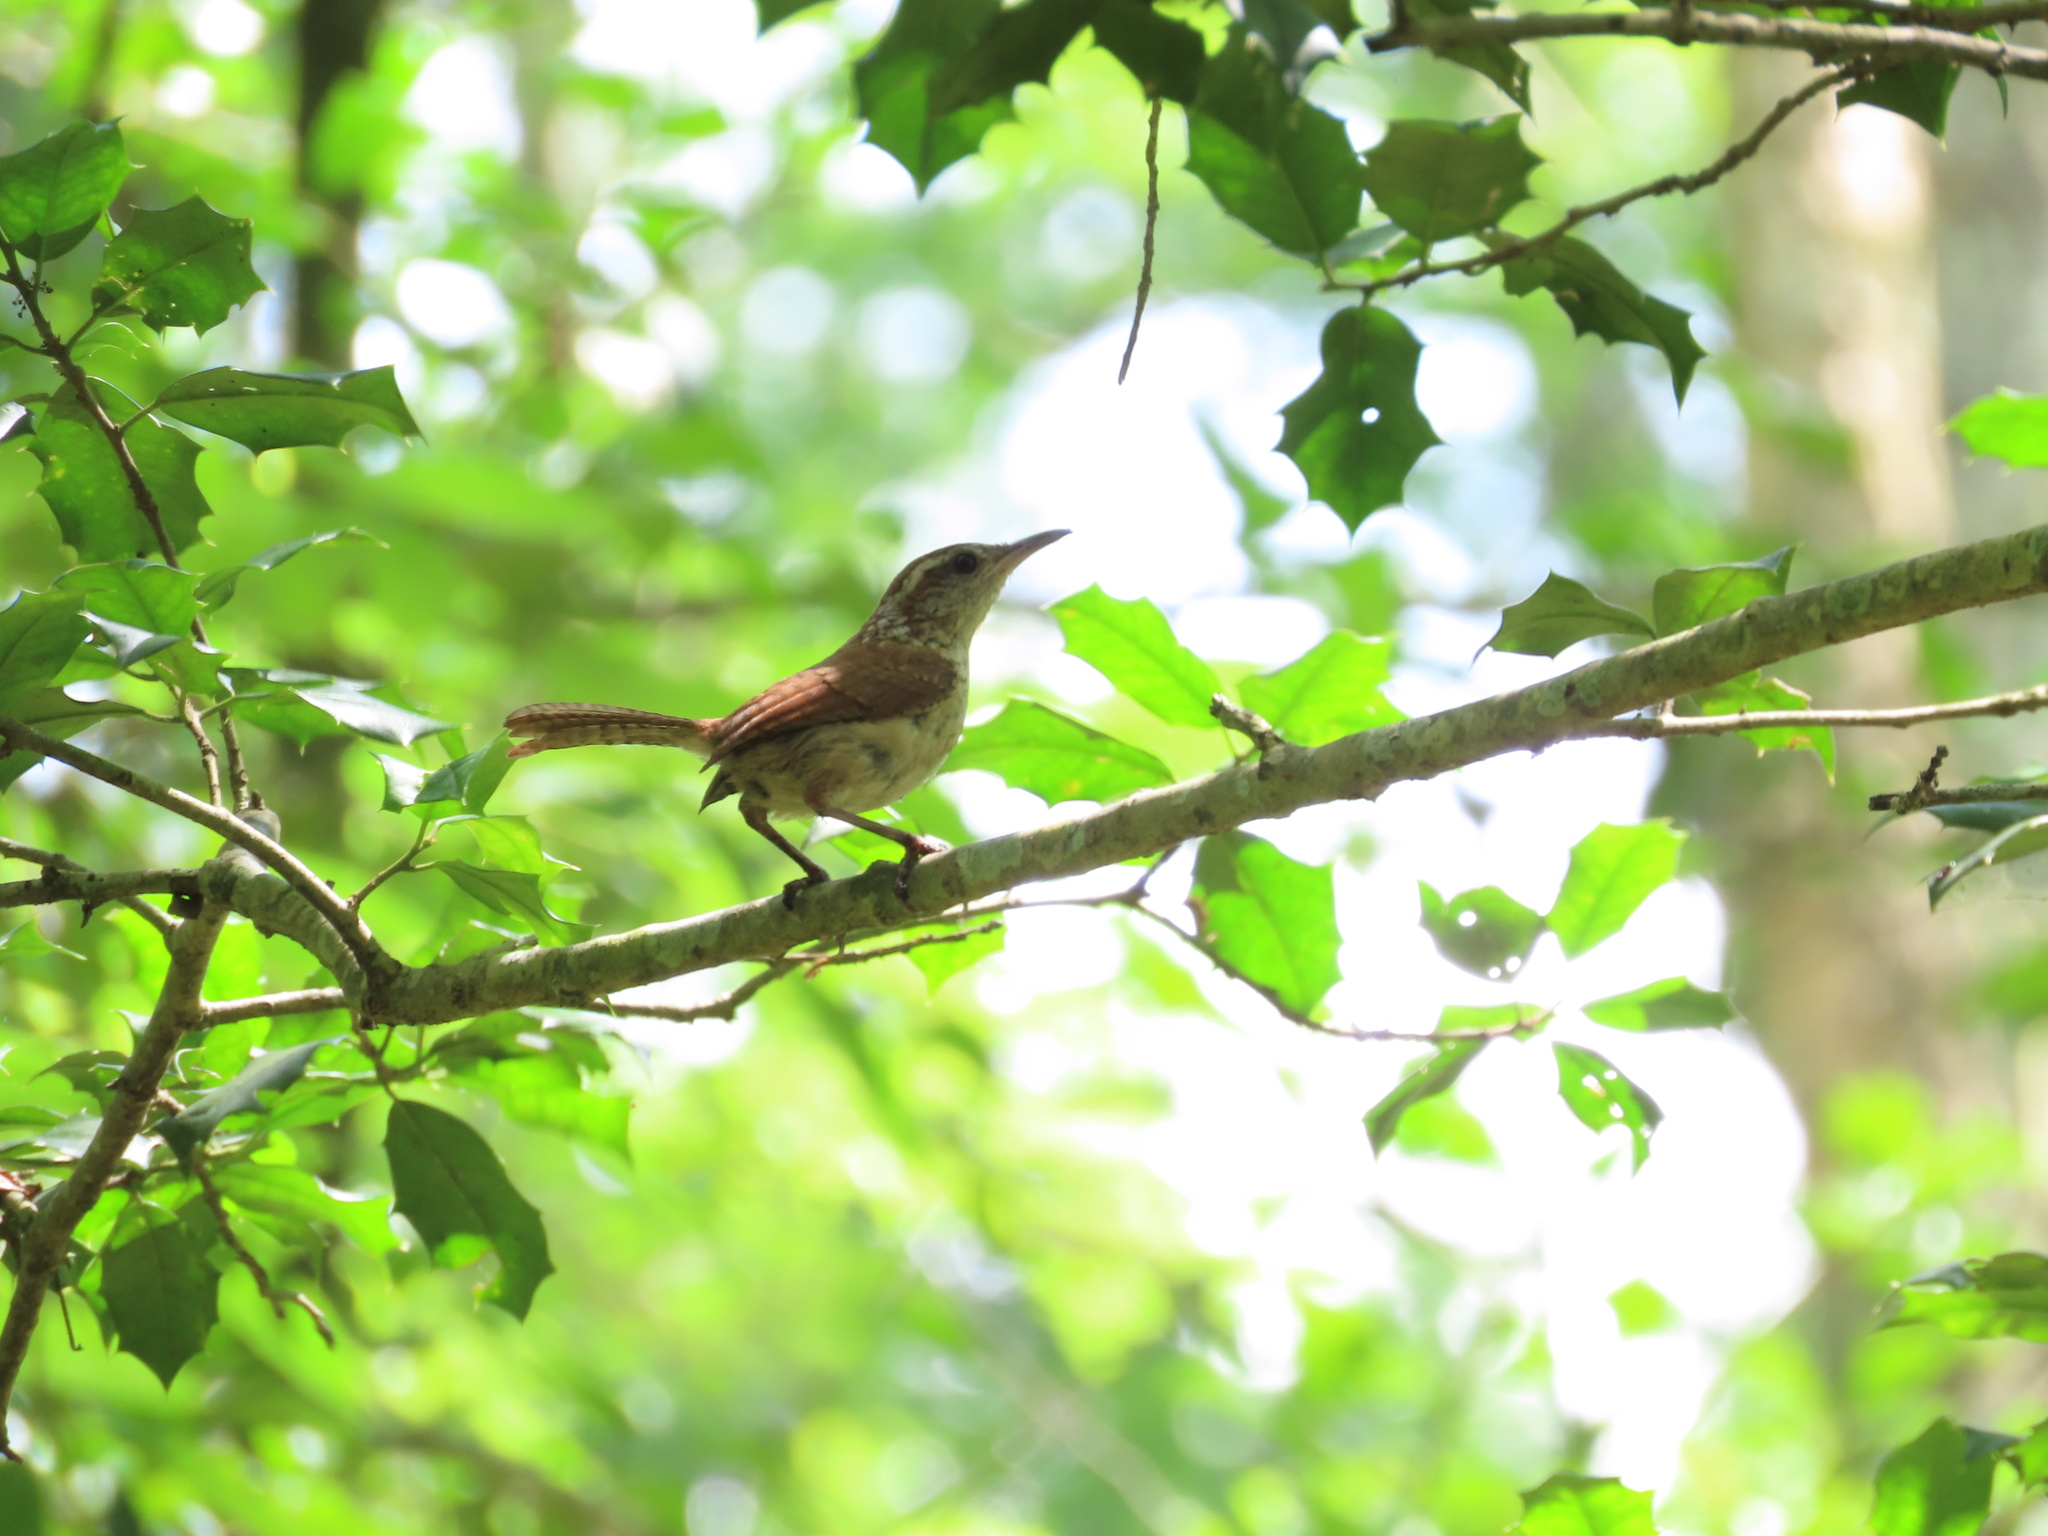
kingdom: Animalia
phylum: Chordata
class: Aves
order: Passeriformes
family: Troglodytidae
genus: Thryothorus
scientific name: Thryothorus ludovicianus
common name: Carolina wren
